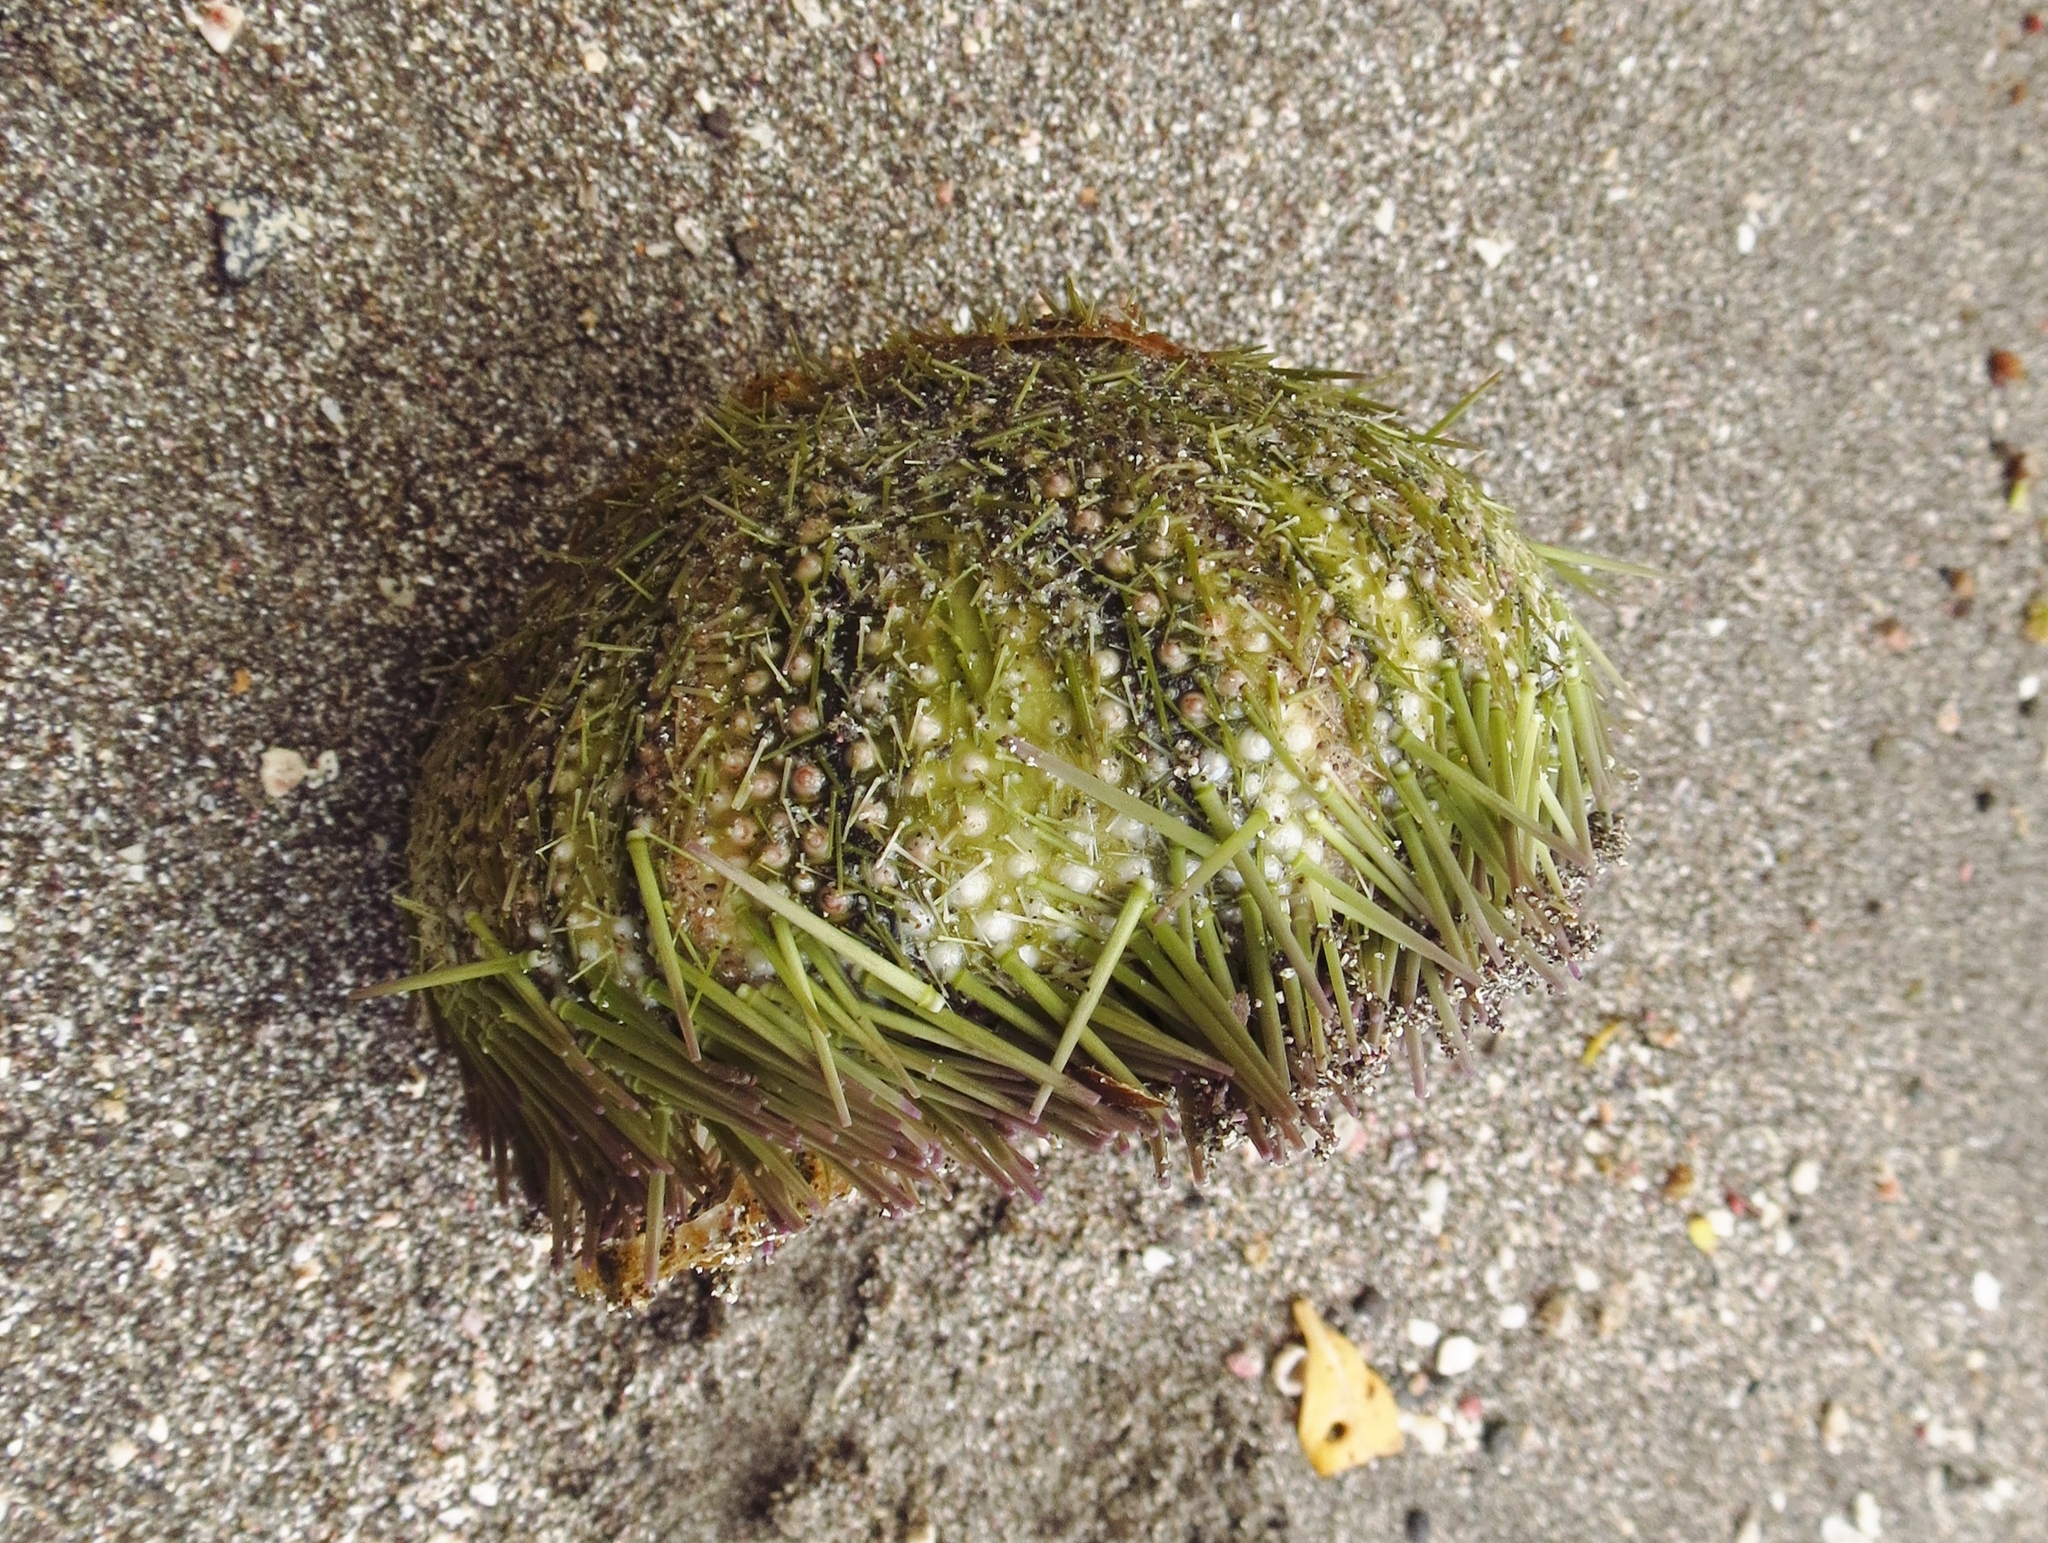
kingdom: Animalia
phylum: Echinodermata
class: Echinoidea
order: Camarodonta
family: Toxopneustidae
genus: Lytechinus
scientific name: Lytechinus variegatus
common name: Variegated urchin
